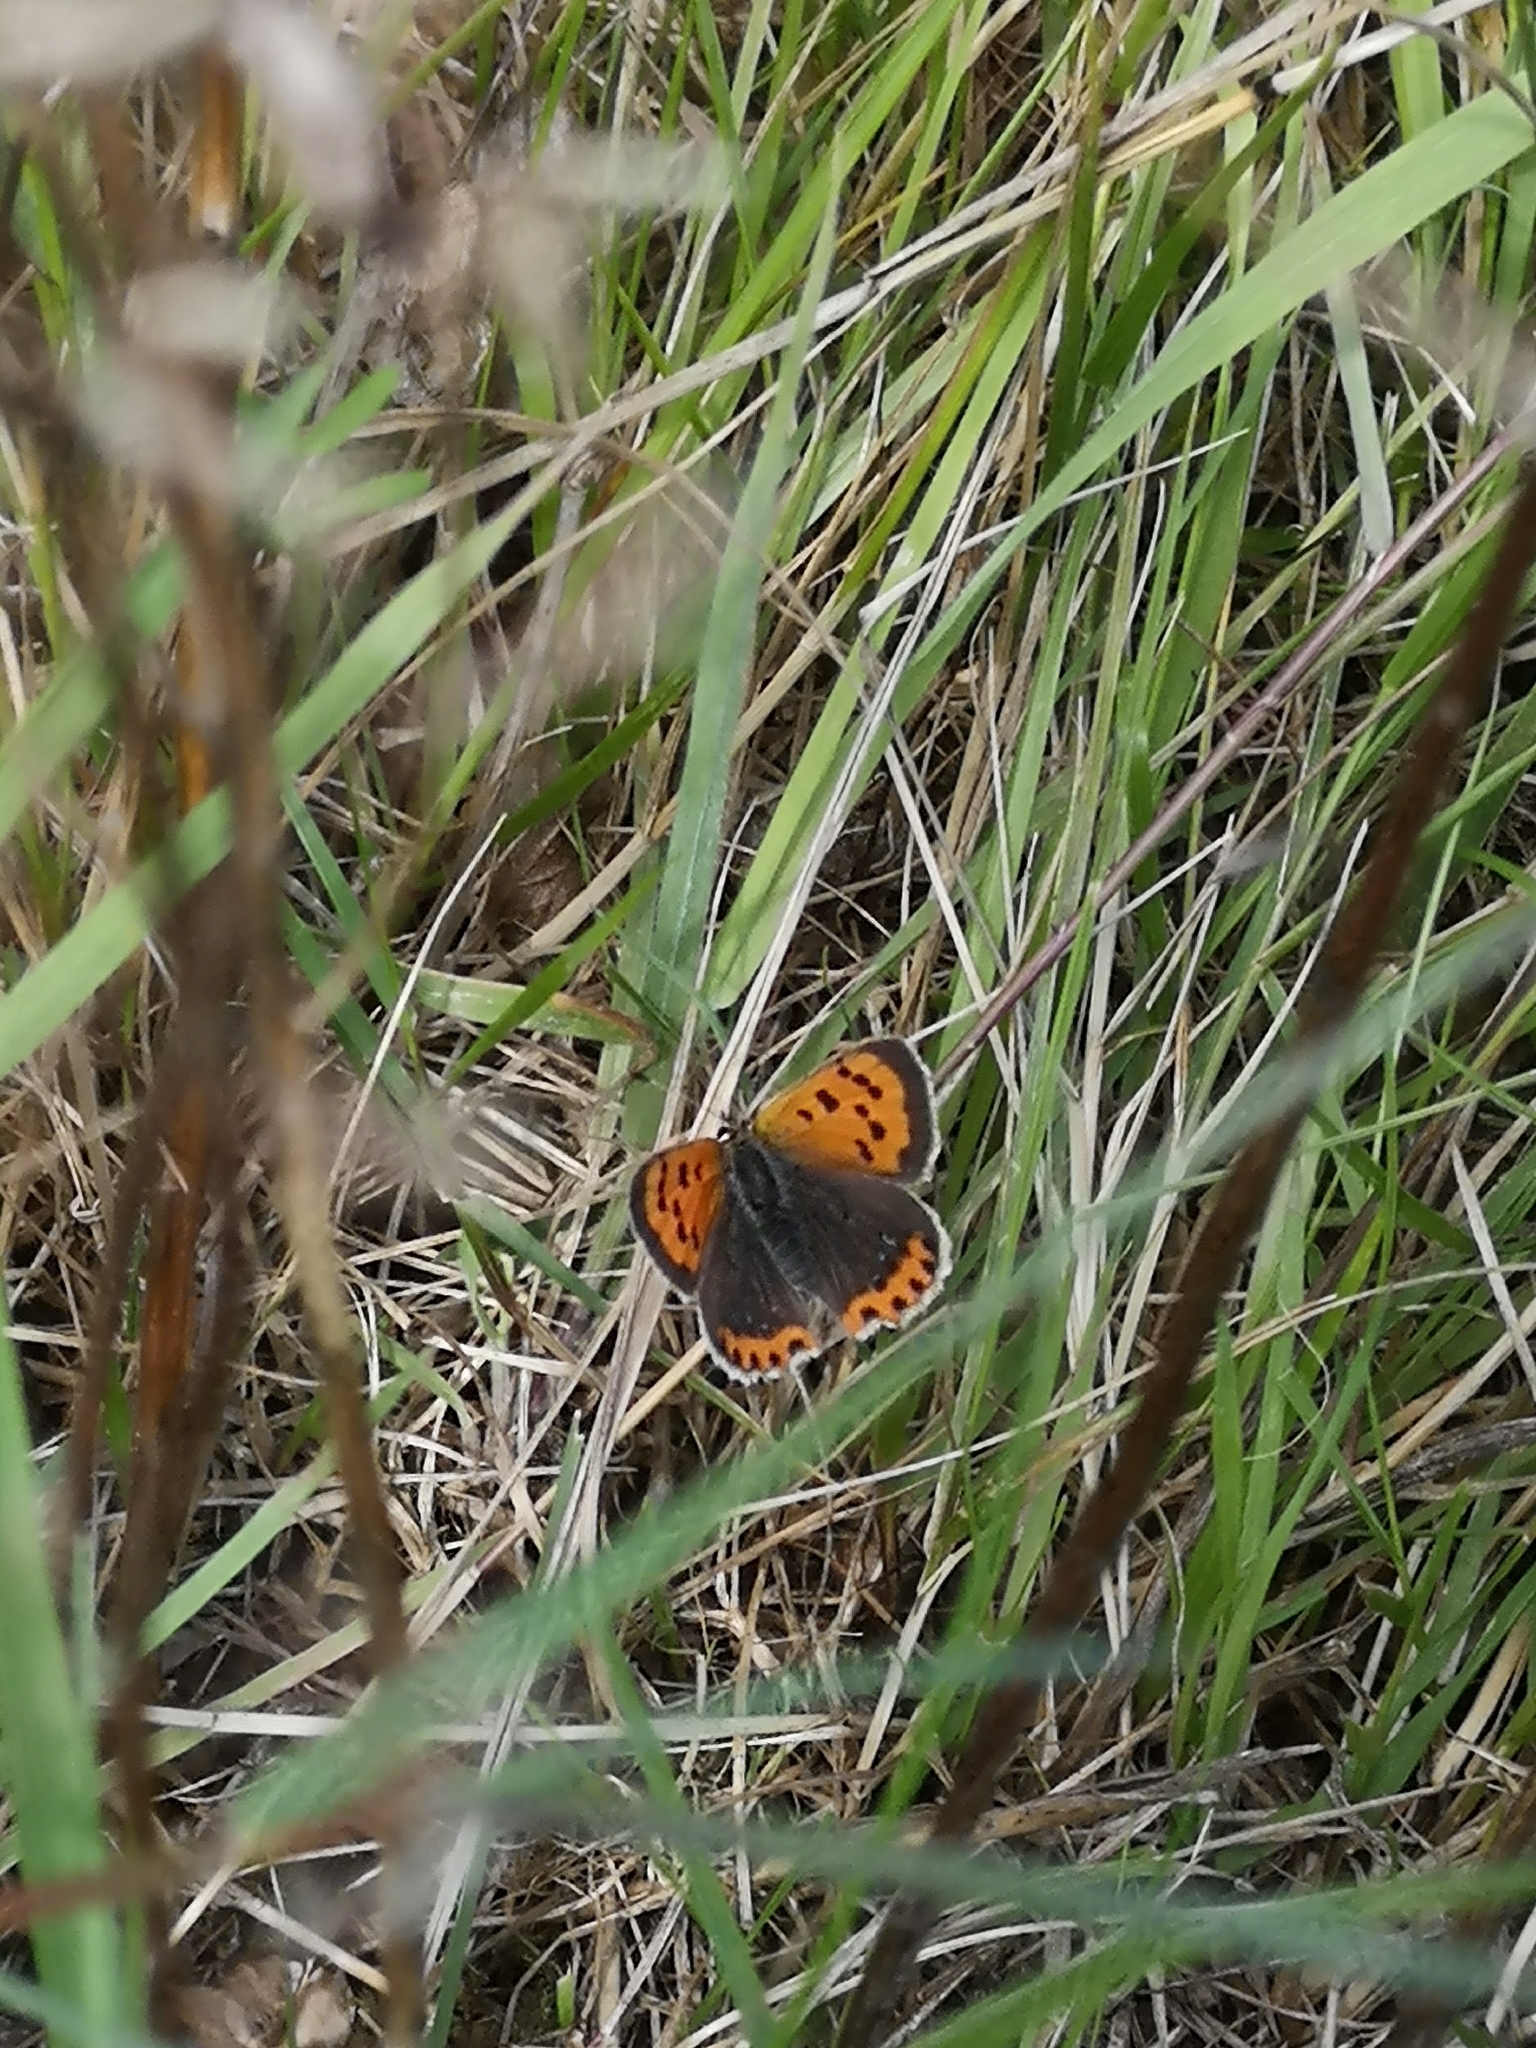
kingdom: Animalia
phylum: Arthropoda
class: Insecta
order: Lepidoptera
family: Lycaenidae
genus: Lycaena
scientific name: Lycaena phlaeas
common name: Small copper
